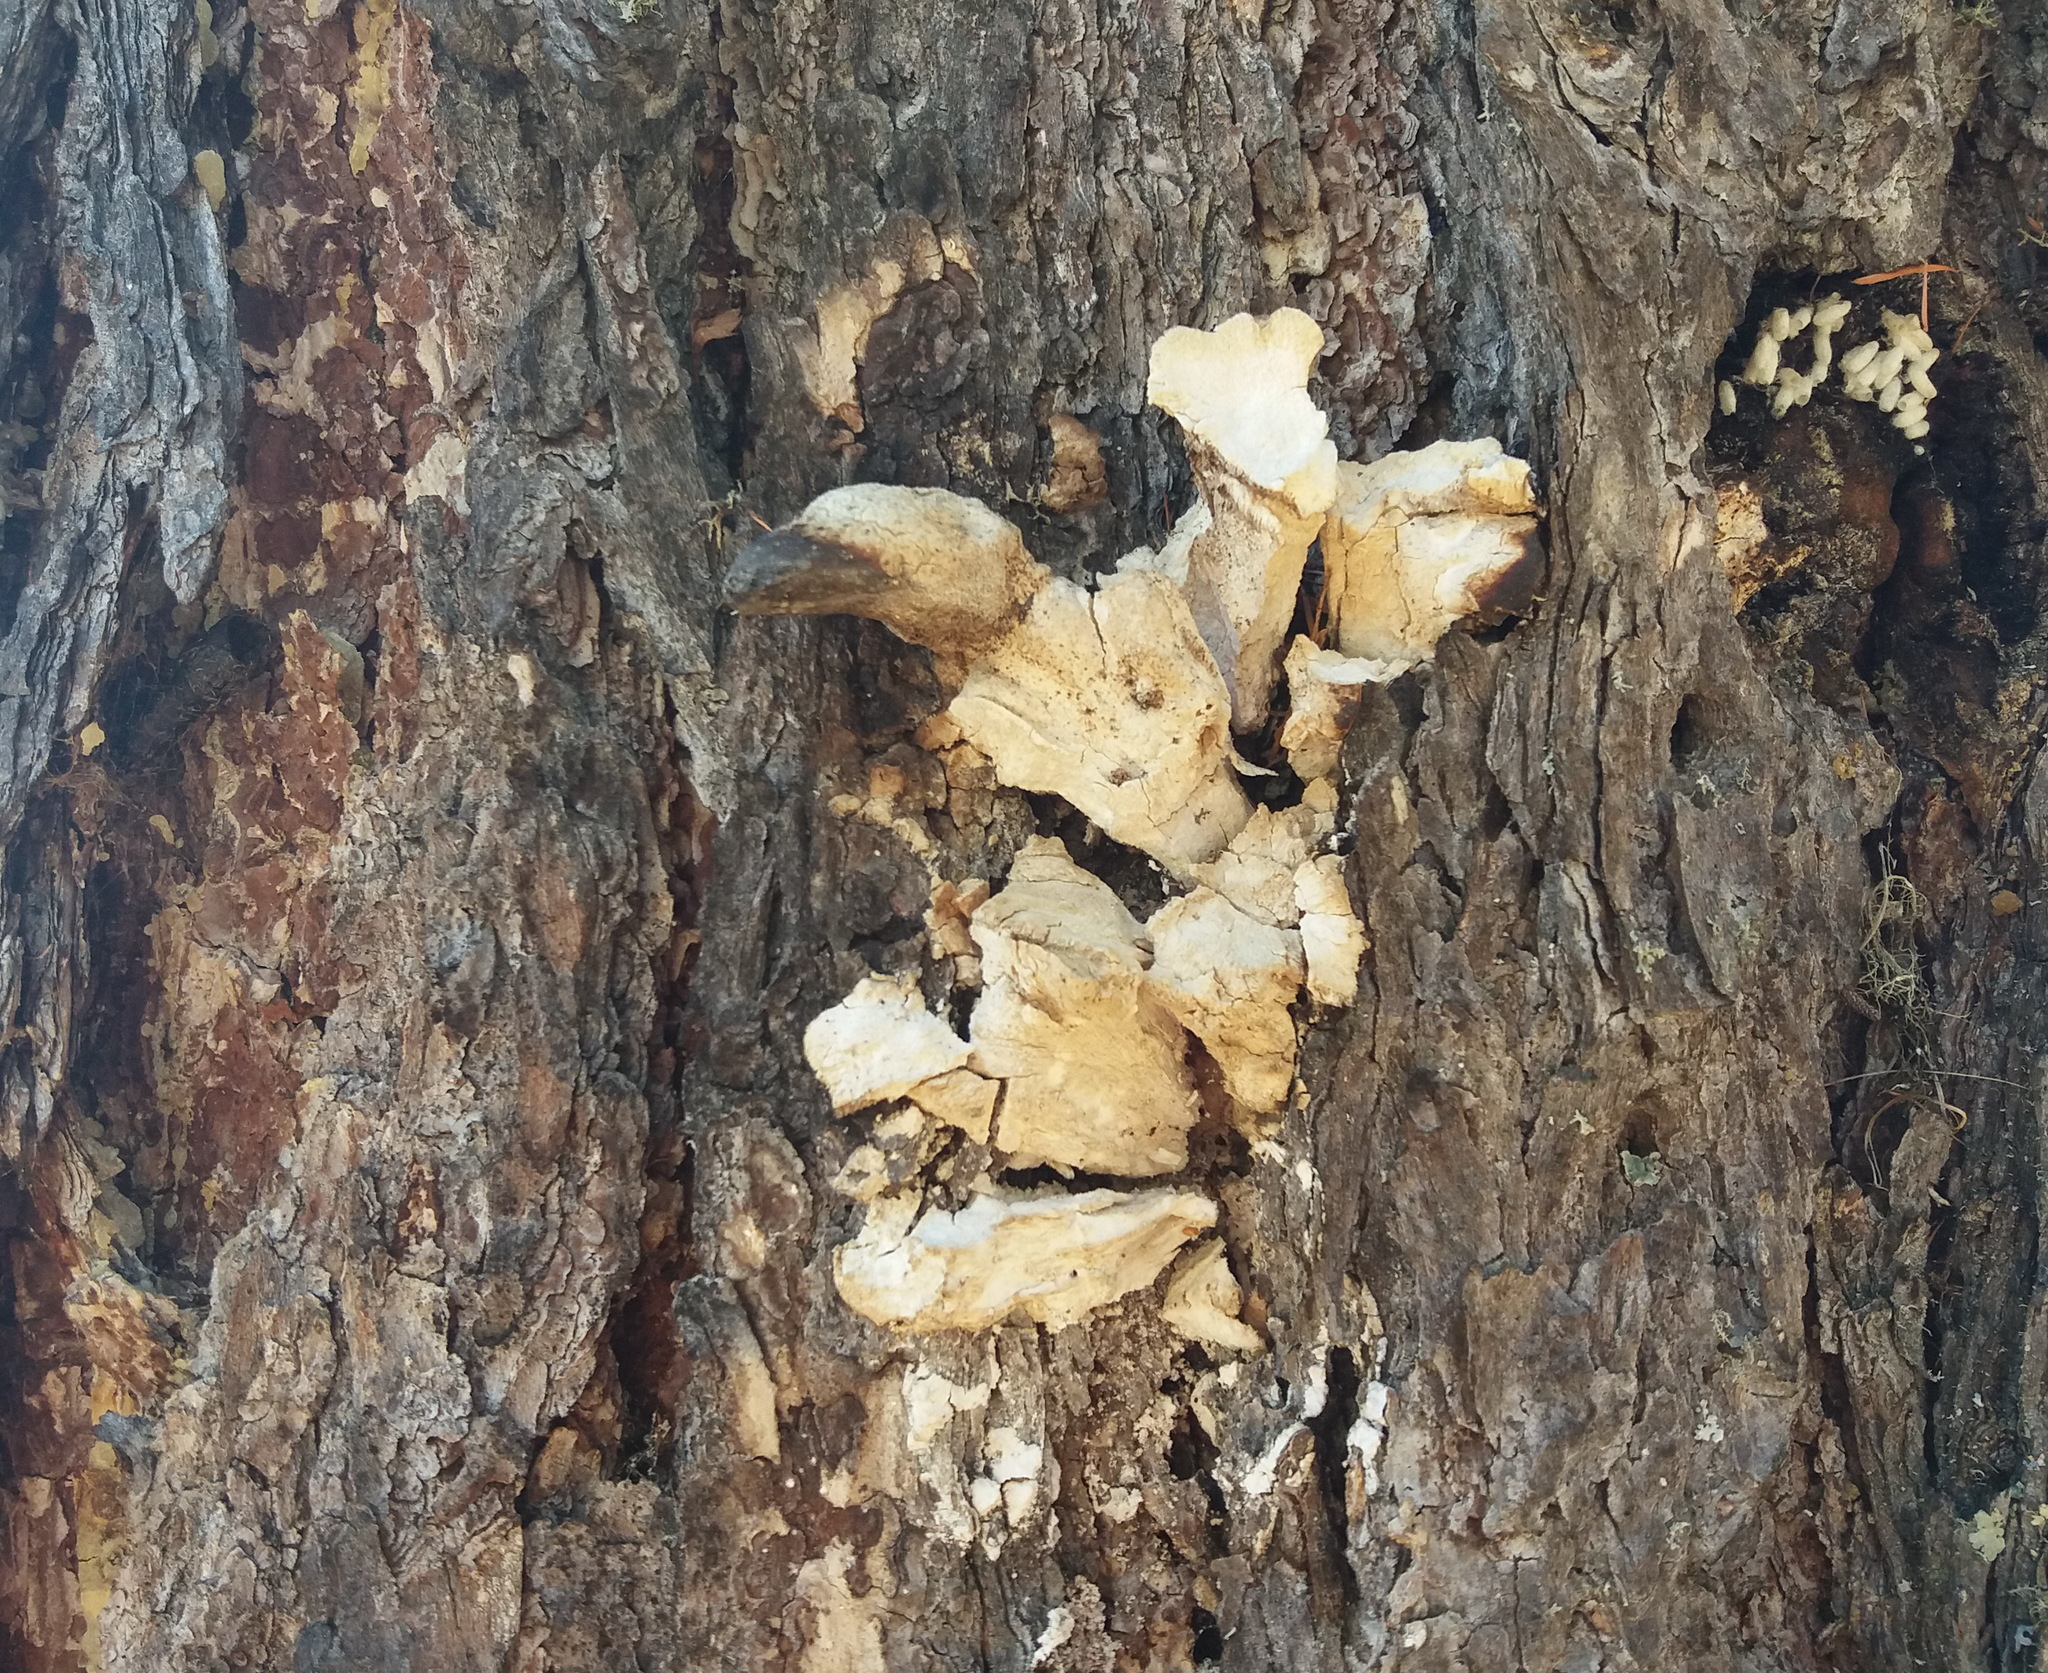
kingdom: Fungi
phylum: Basidiomycota
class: Agaricomycetes
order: Polyporales
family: Fomitopsidaceae
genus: Fomitopsis
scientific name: Fomitopsis officinalis
